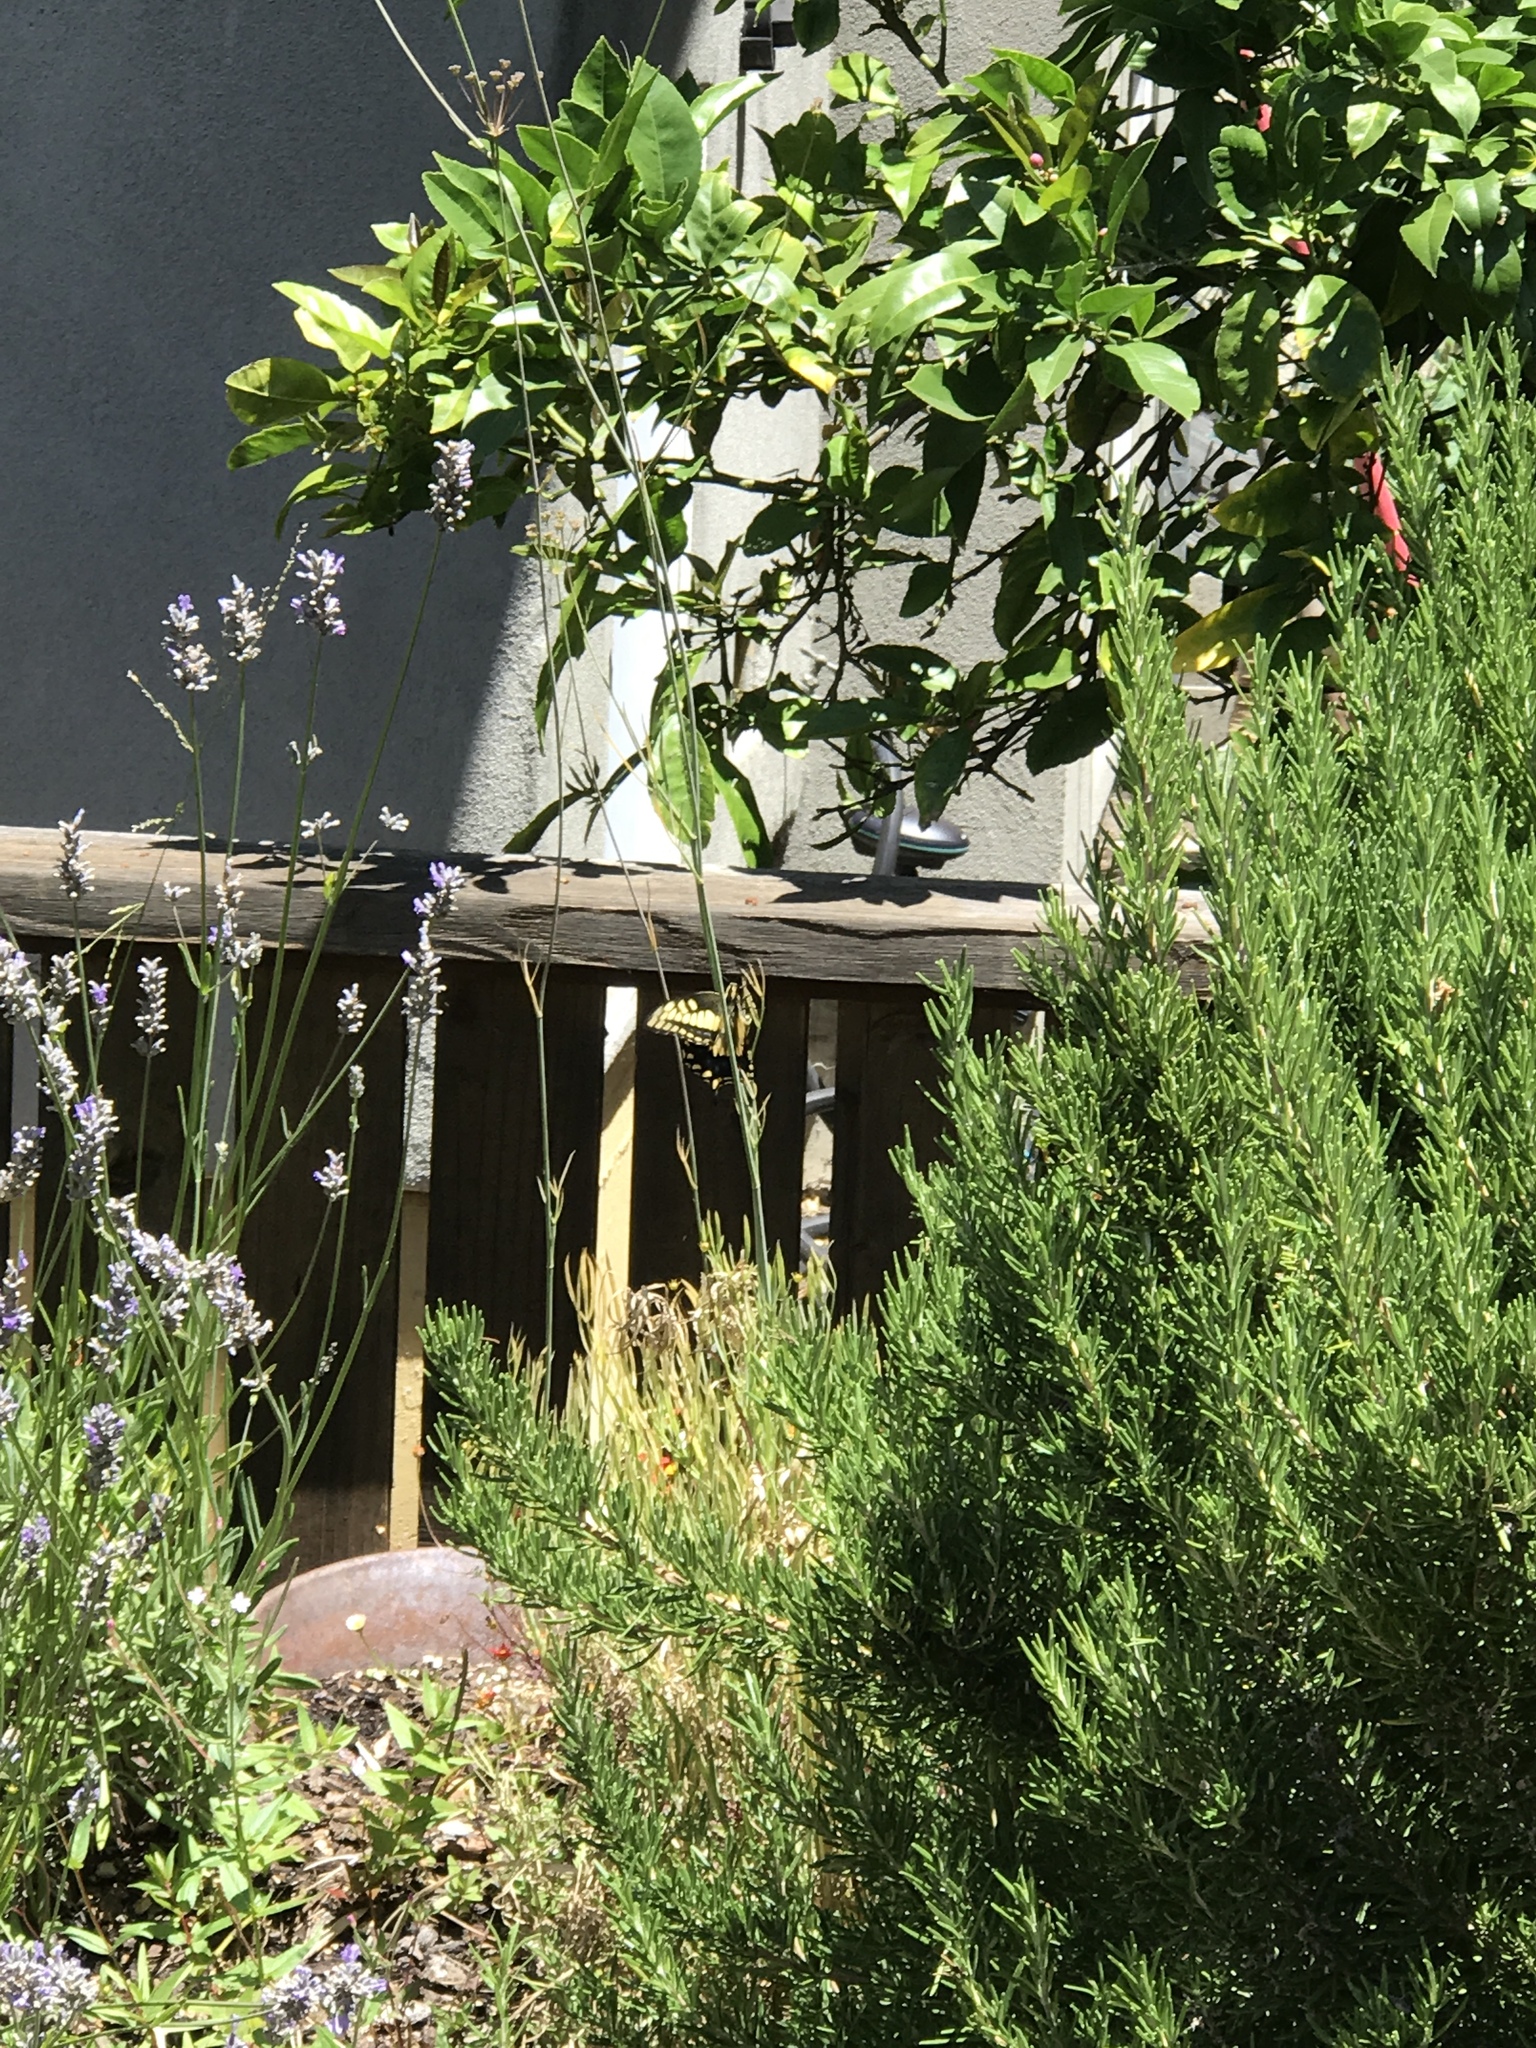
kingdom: Animalia
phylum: Arthropoda
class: Insecta
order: Lepidoptera
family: Papilionidae
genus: Papilio
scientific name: Papilio zelicaon
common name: Anise swallowtail
